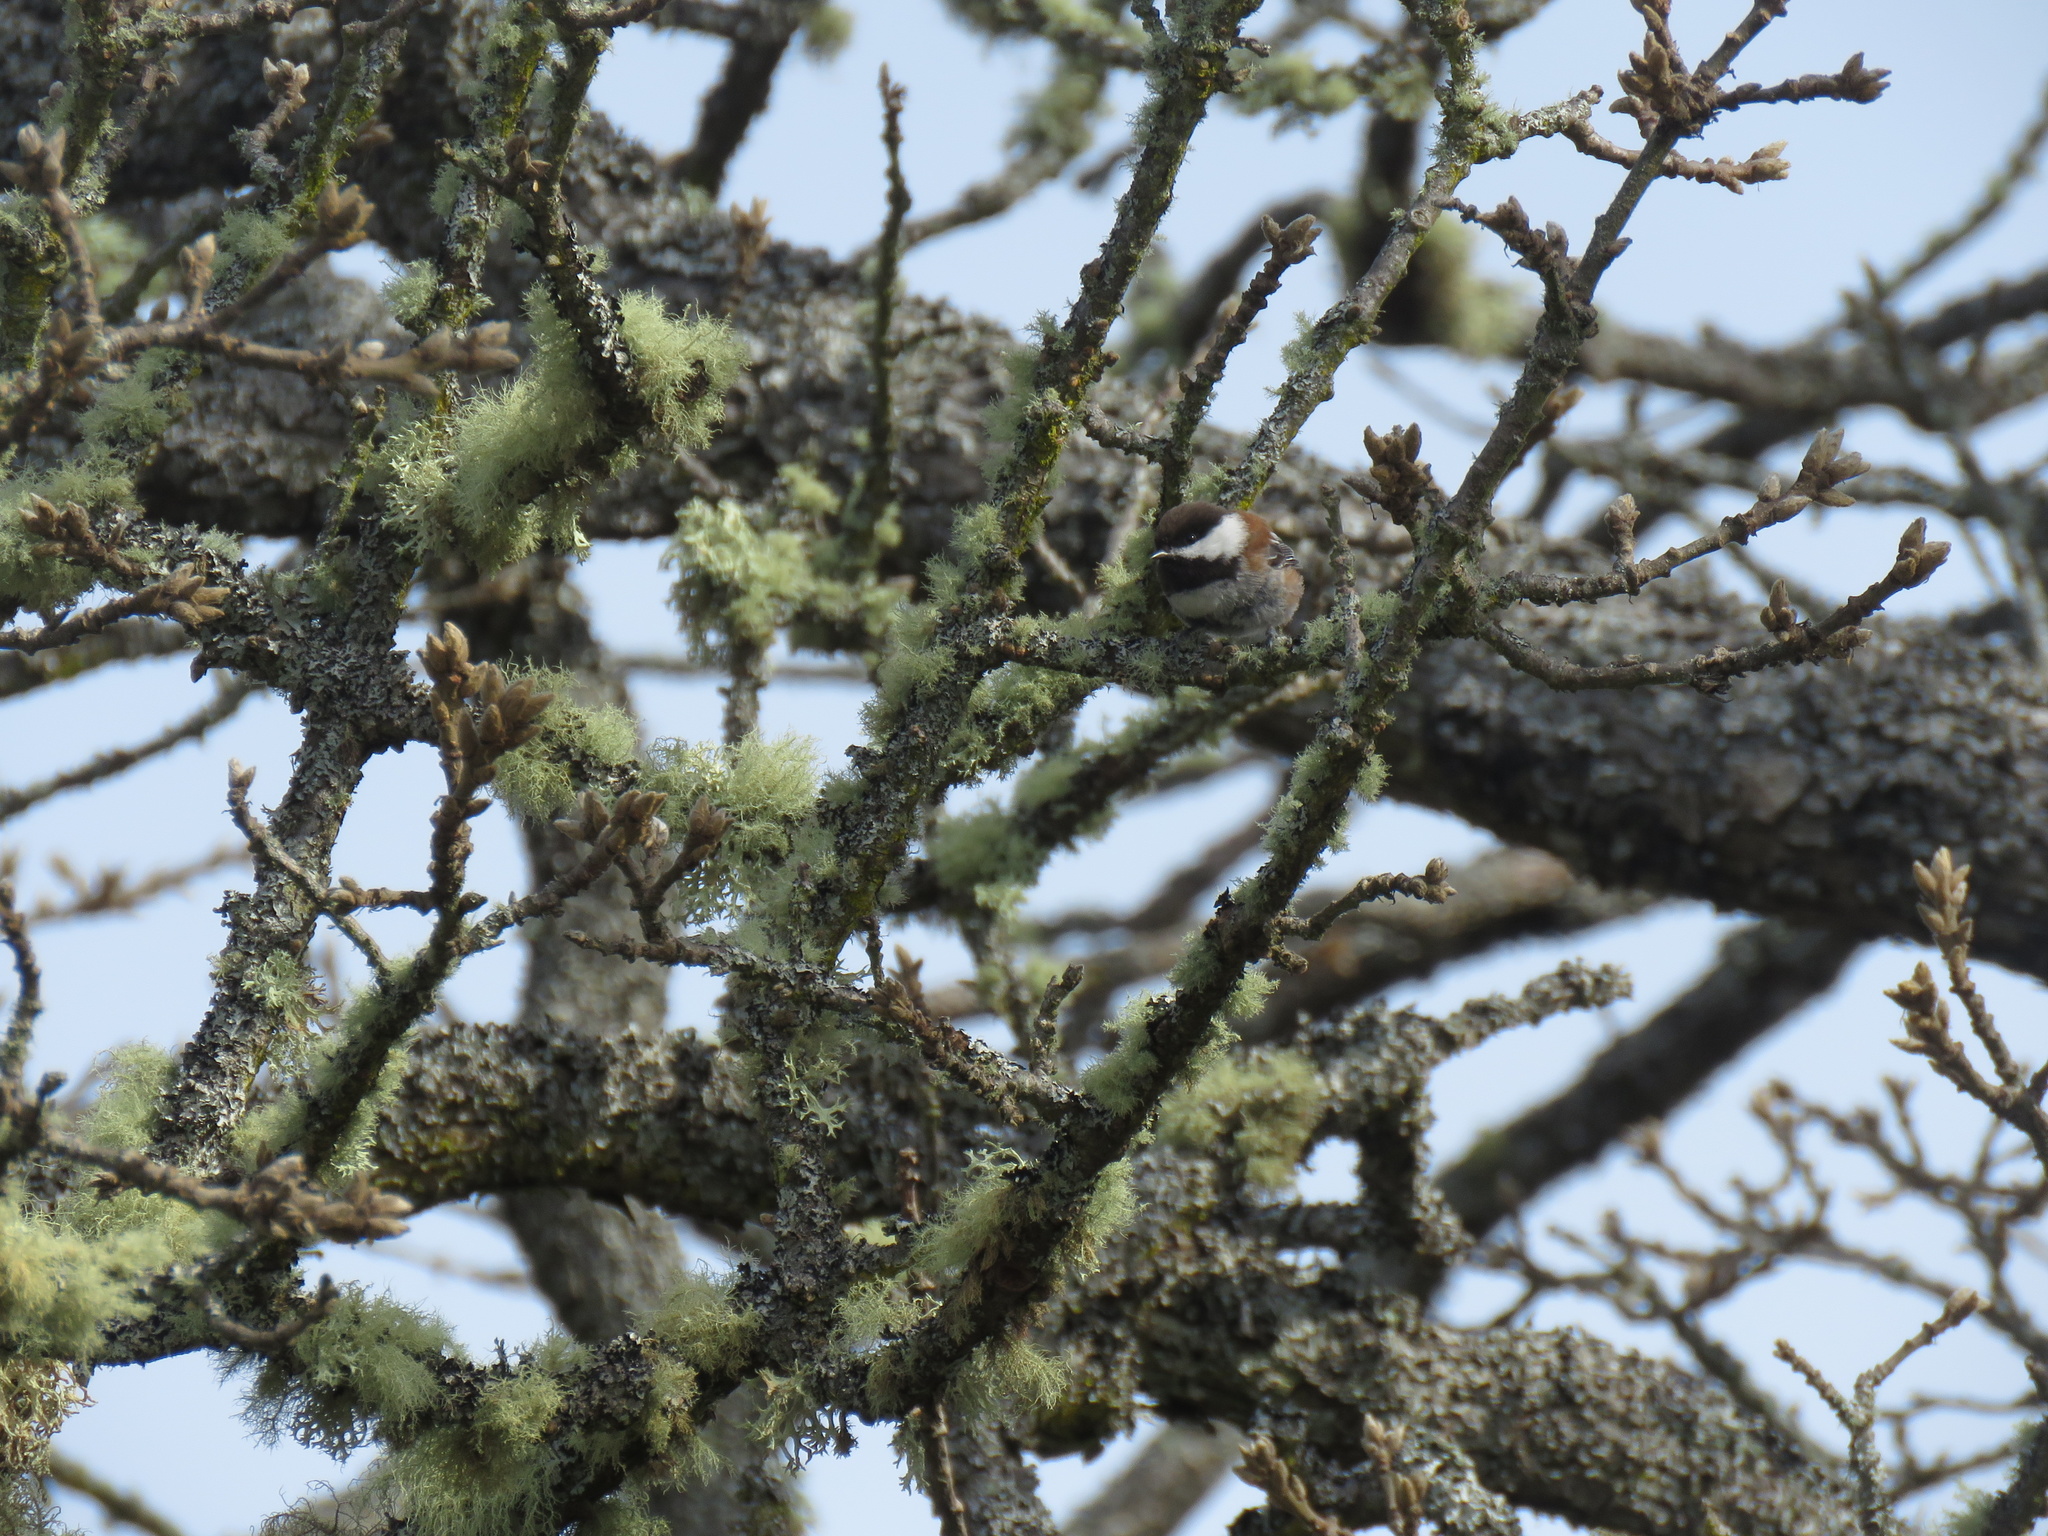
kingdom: Animalia
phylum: Chordata
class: Aves
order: Passeriformes
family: Paridae
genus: Poecile
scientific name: Poecile rufescens
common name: Chestnut-backed chickadee
